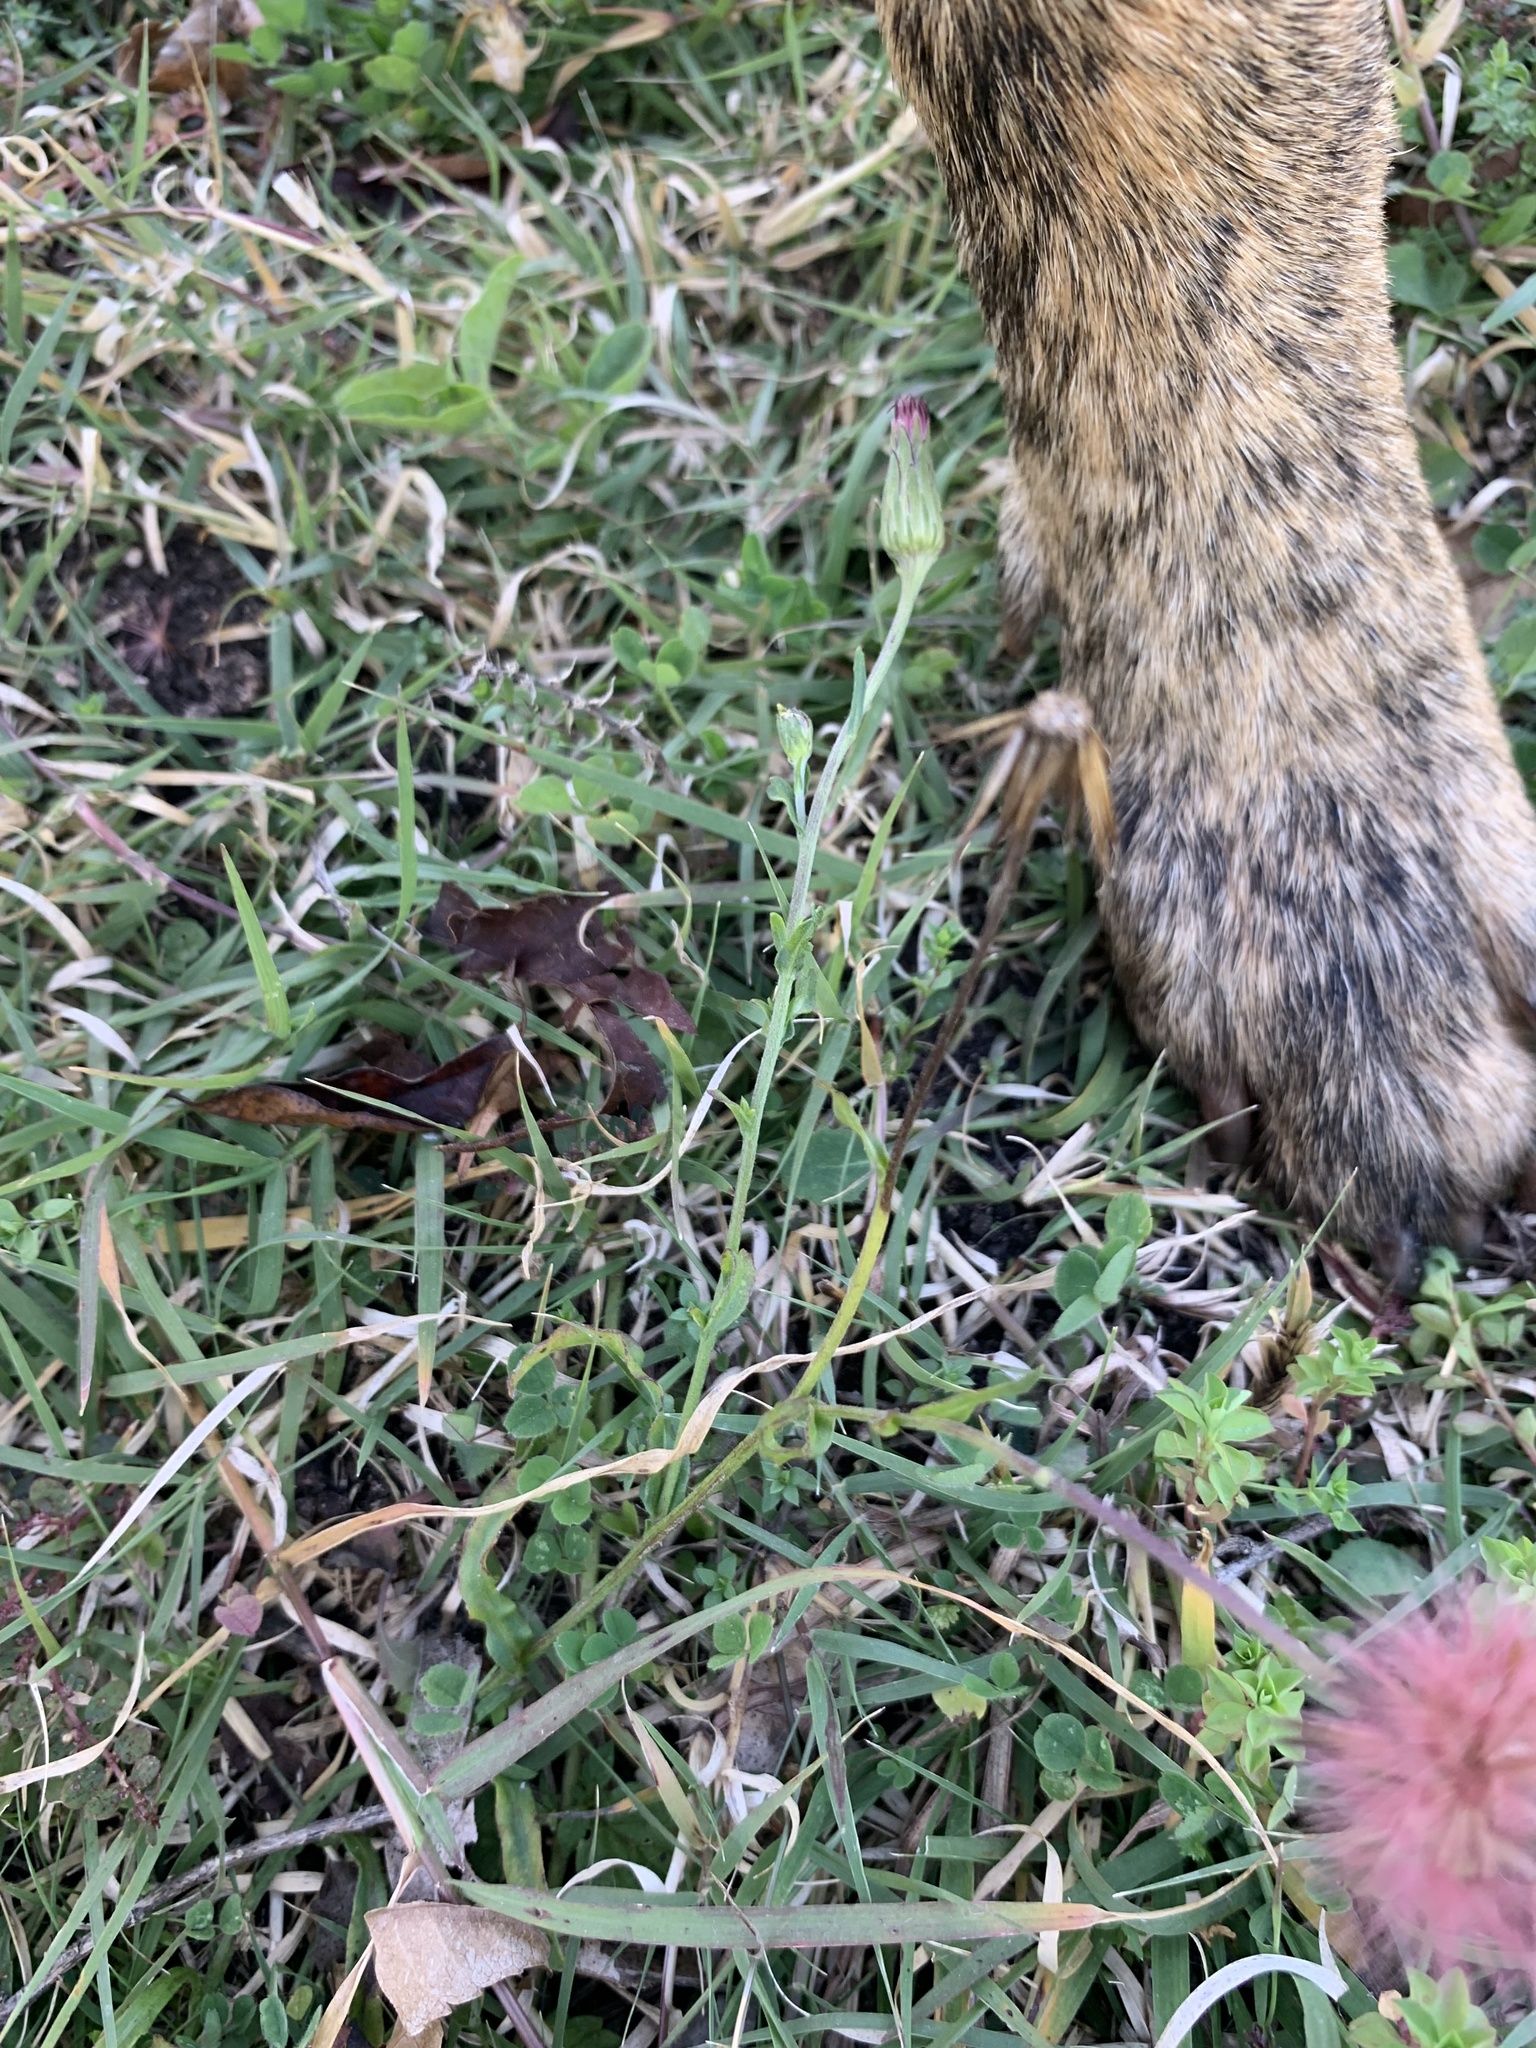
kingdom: Plantae
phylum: Tracheophyta
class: Magnoliopsida
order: Asterales
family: Asteraceae
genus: Noticastrum
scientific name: Noticastrum diffusum
